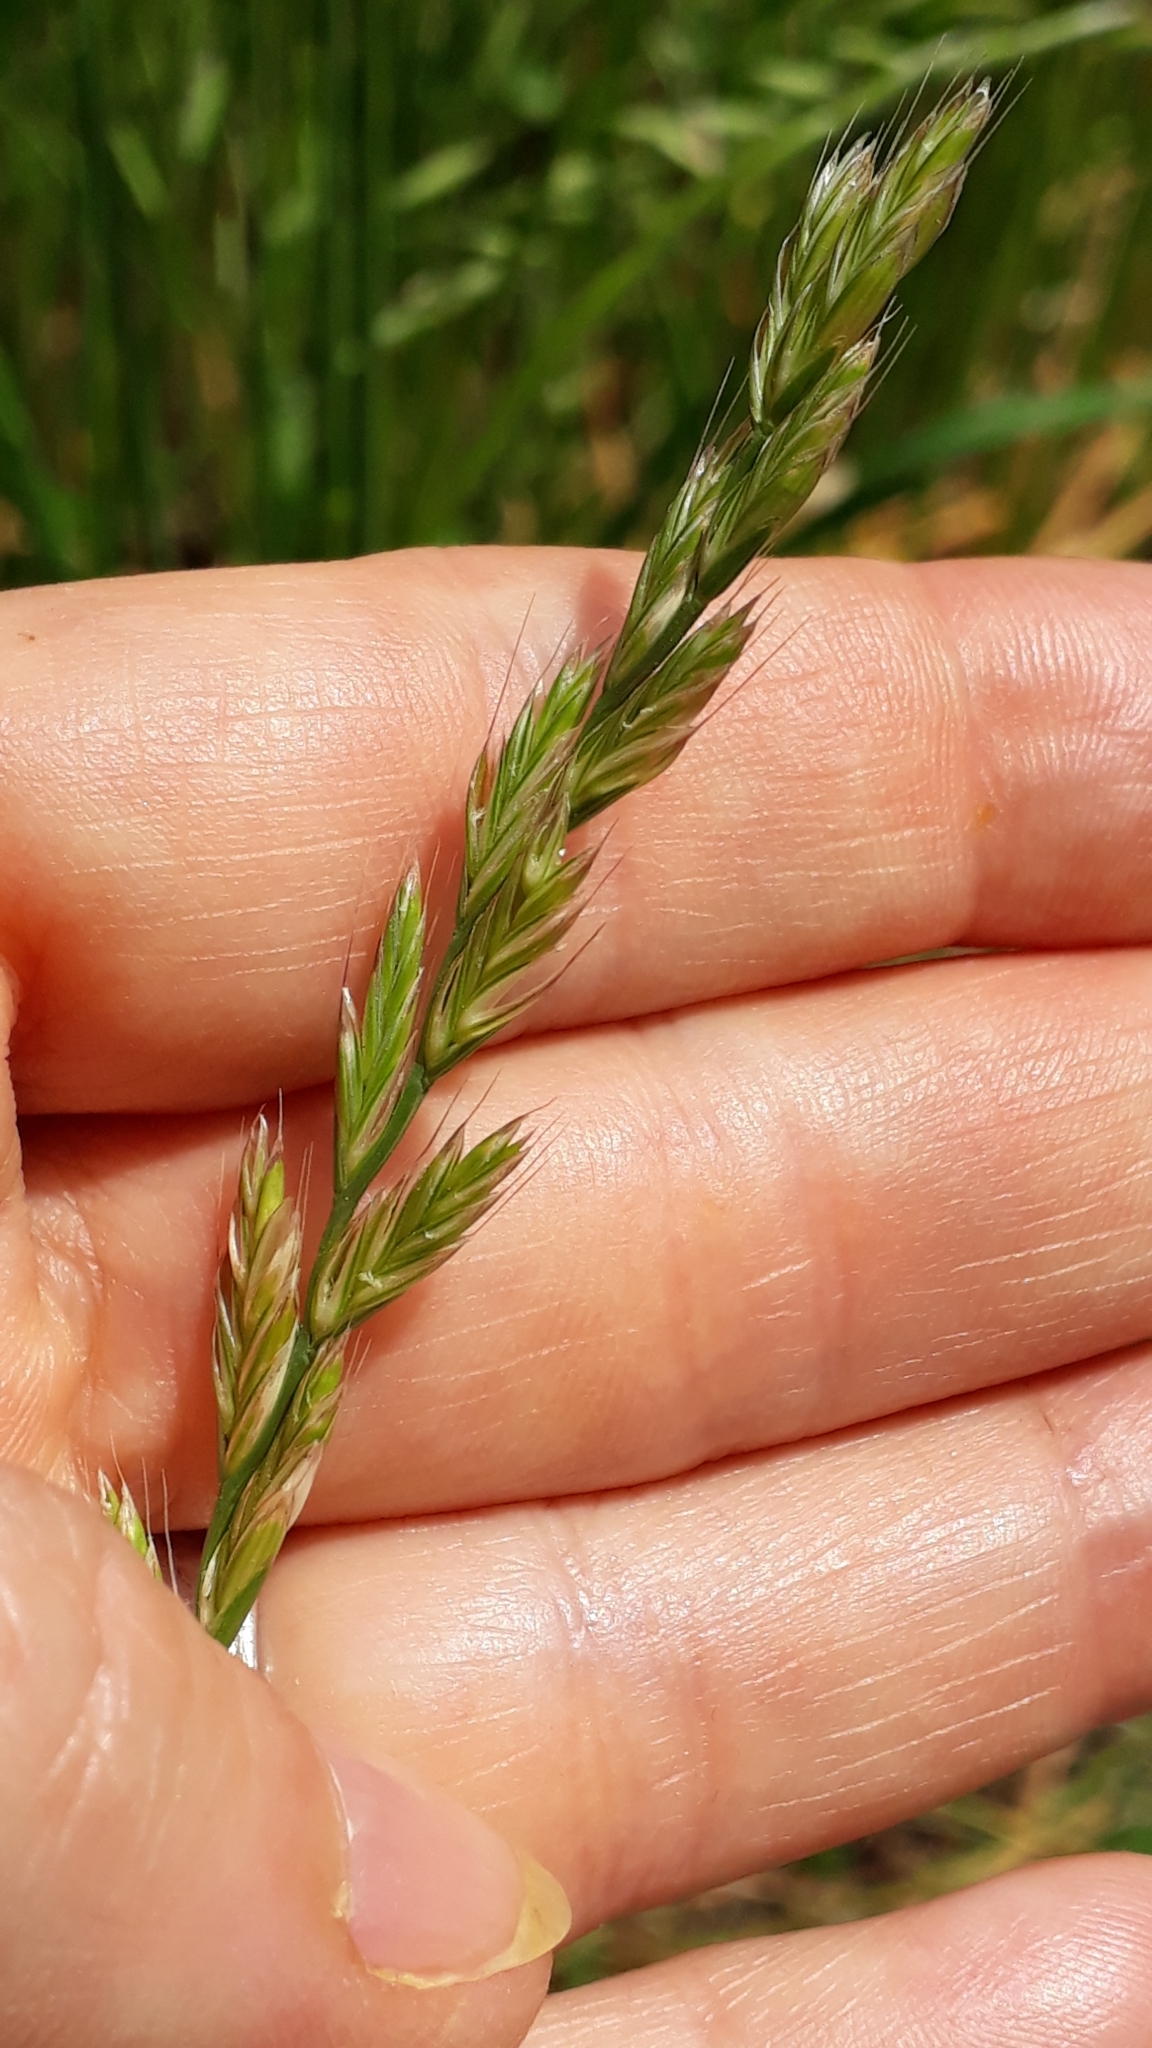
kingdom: Plantae
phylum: Tracheophyta
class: Liliopsida
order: Poales
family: Poaceae
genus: Lolium
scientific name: Lolium multiflorum
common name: Annual ryegrass
